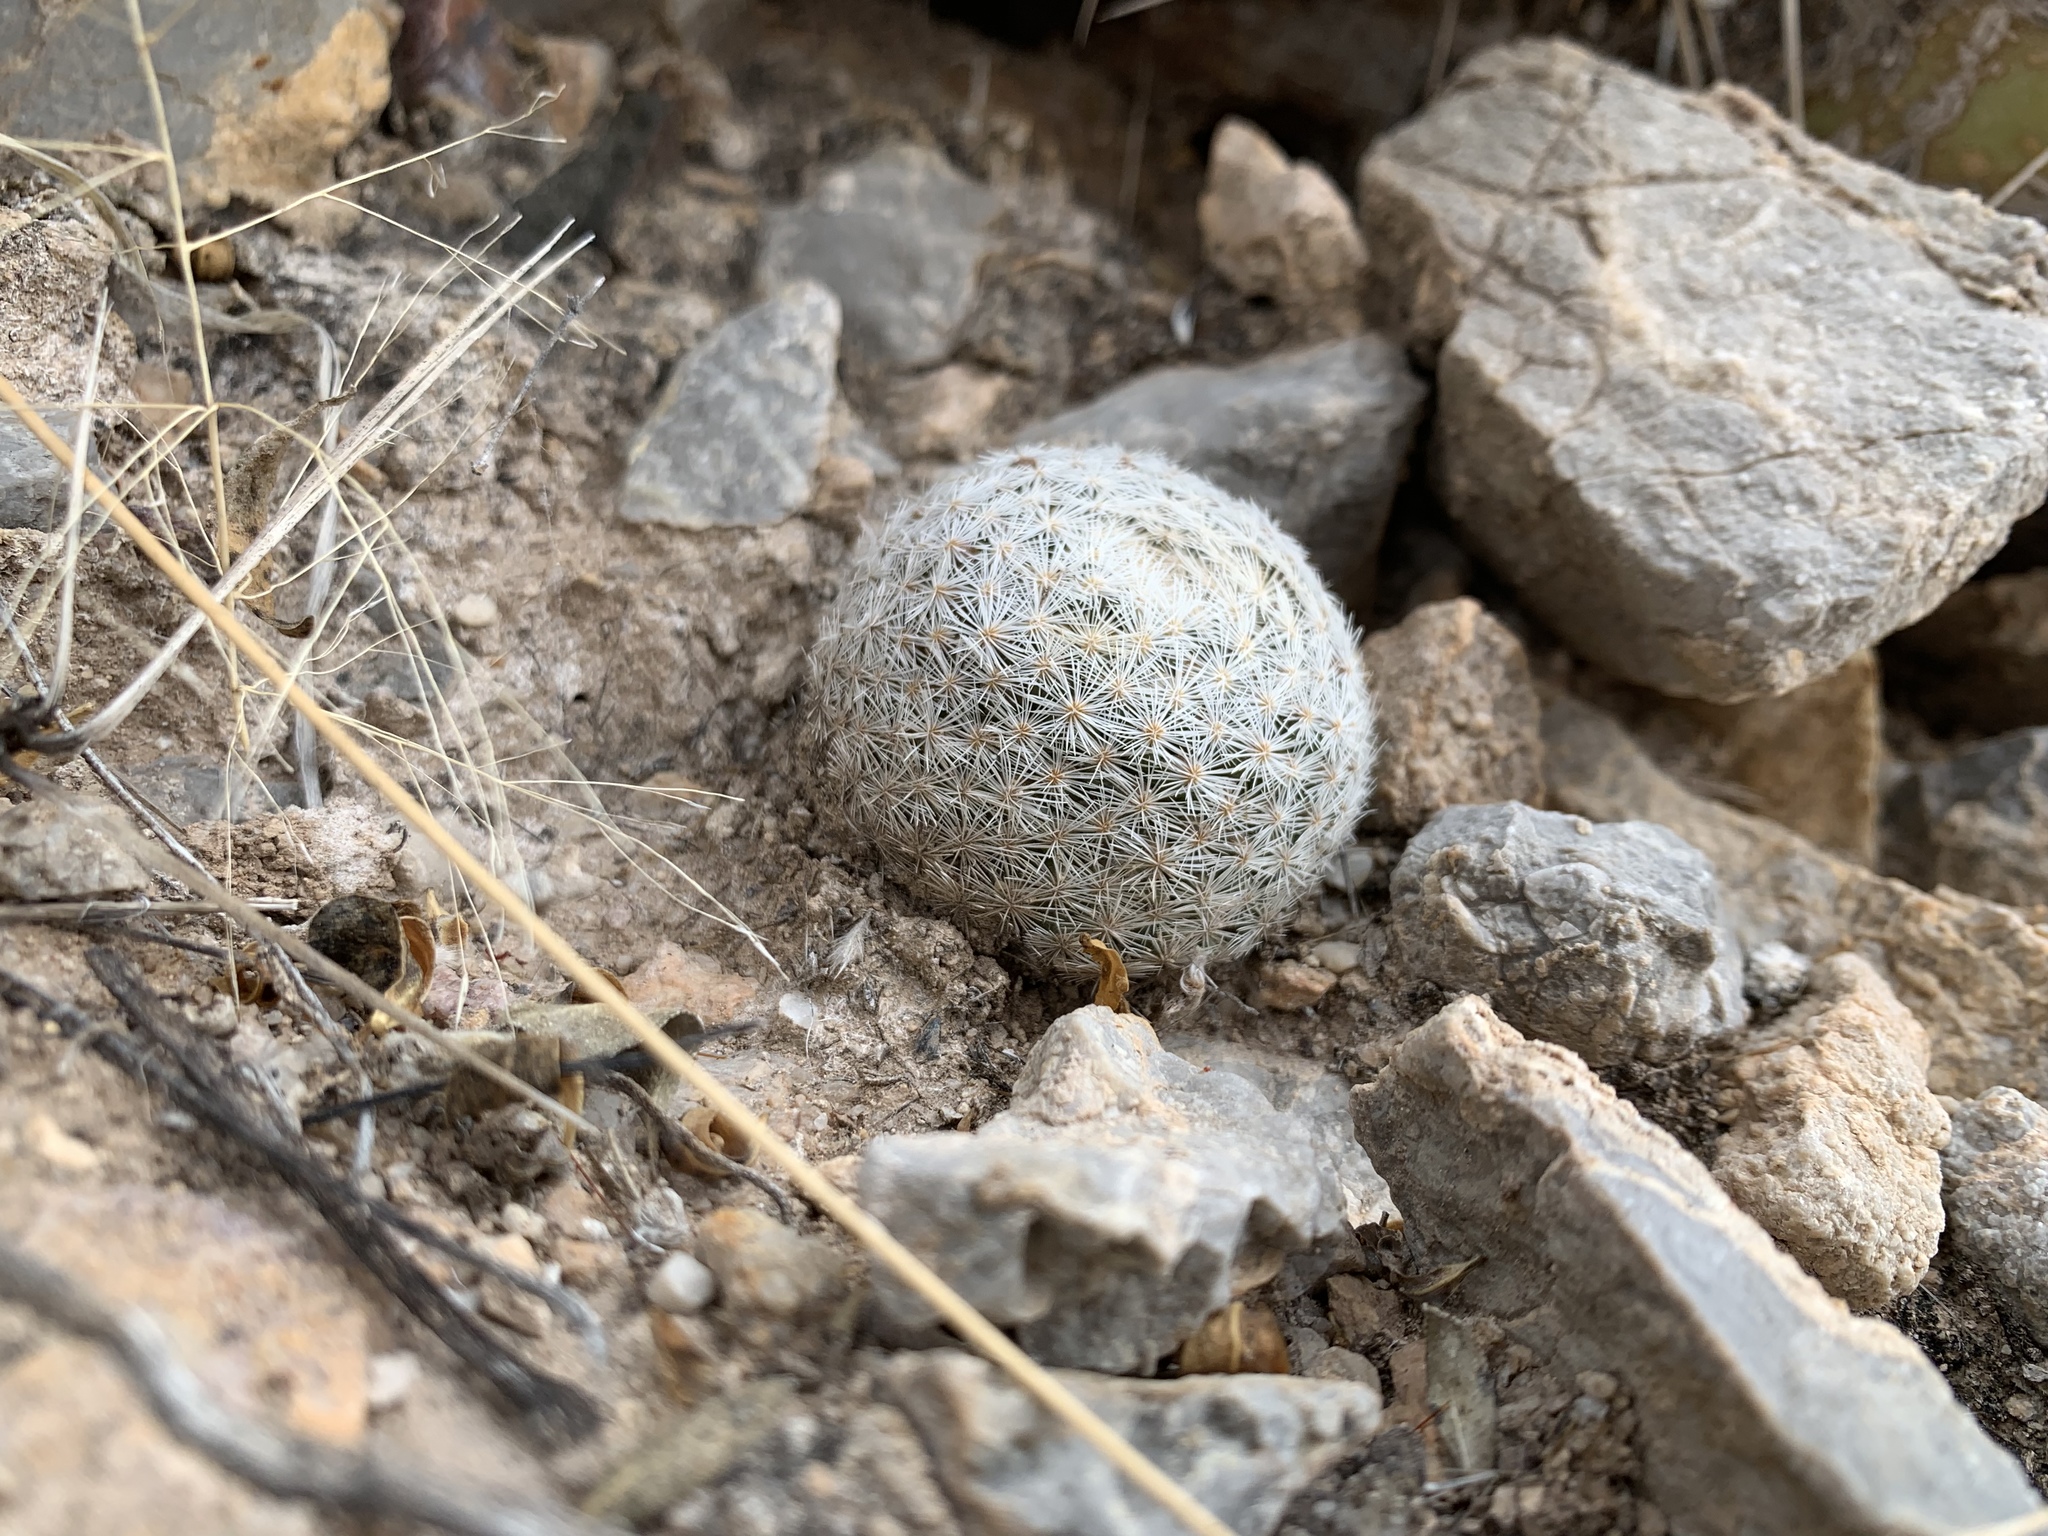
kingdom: Plantae
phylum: Tracheophyta
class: Magnoliopsida
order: Caryophyllales
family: Cactaceae
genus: Mammillaria
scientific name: Mammillaria lasiacantha
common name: Lace-spine nipple cactus
